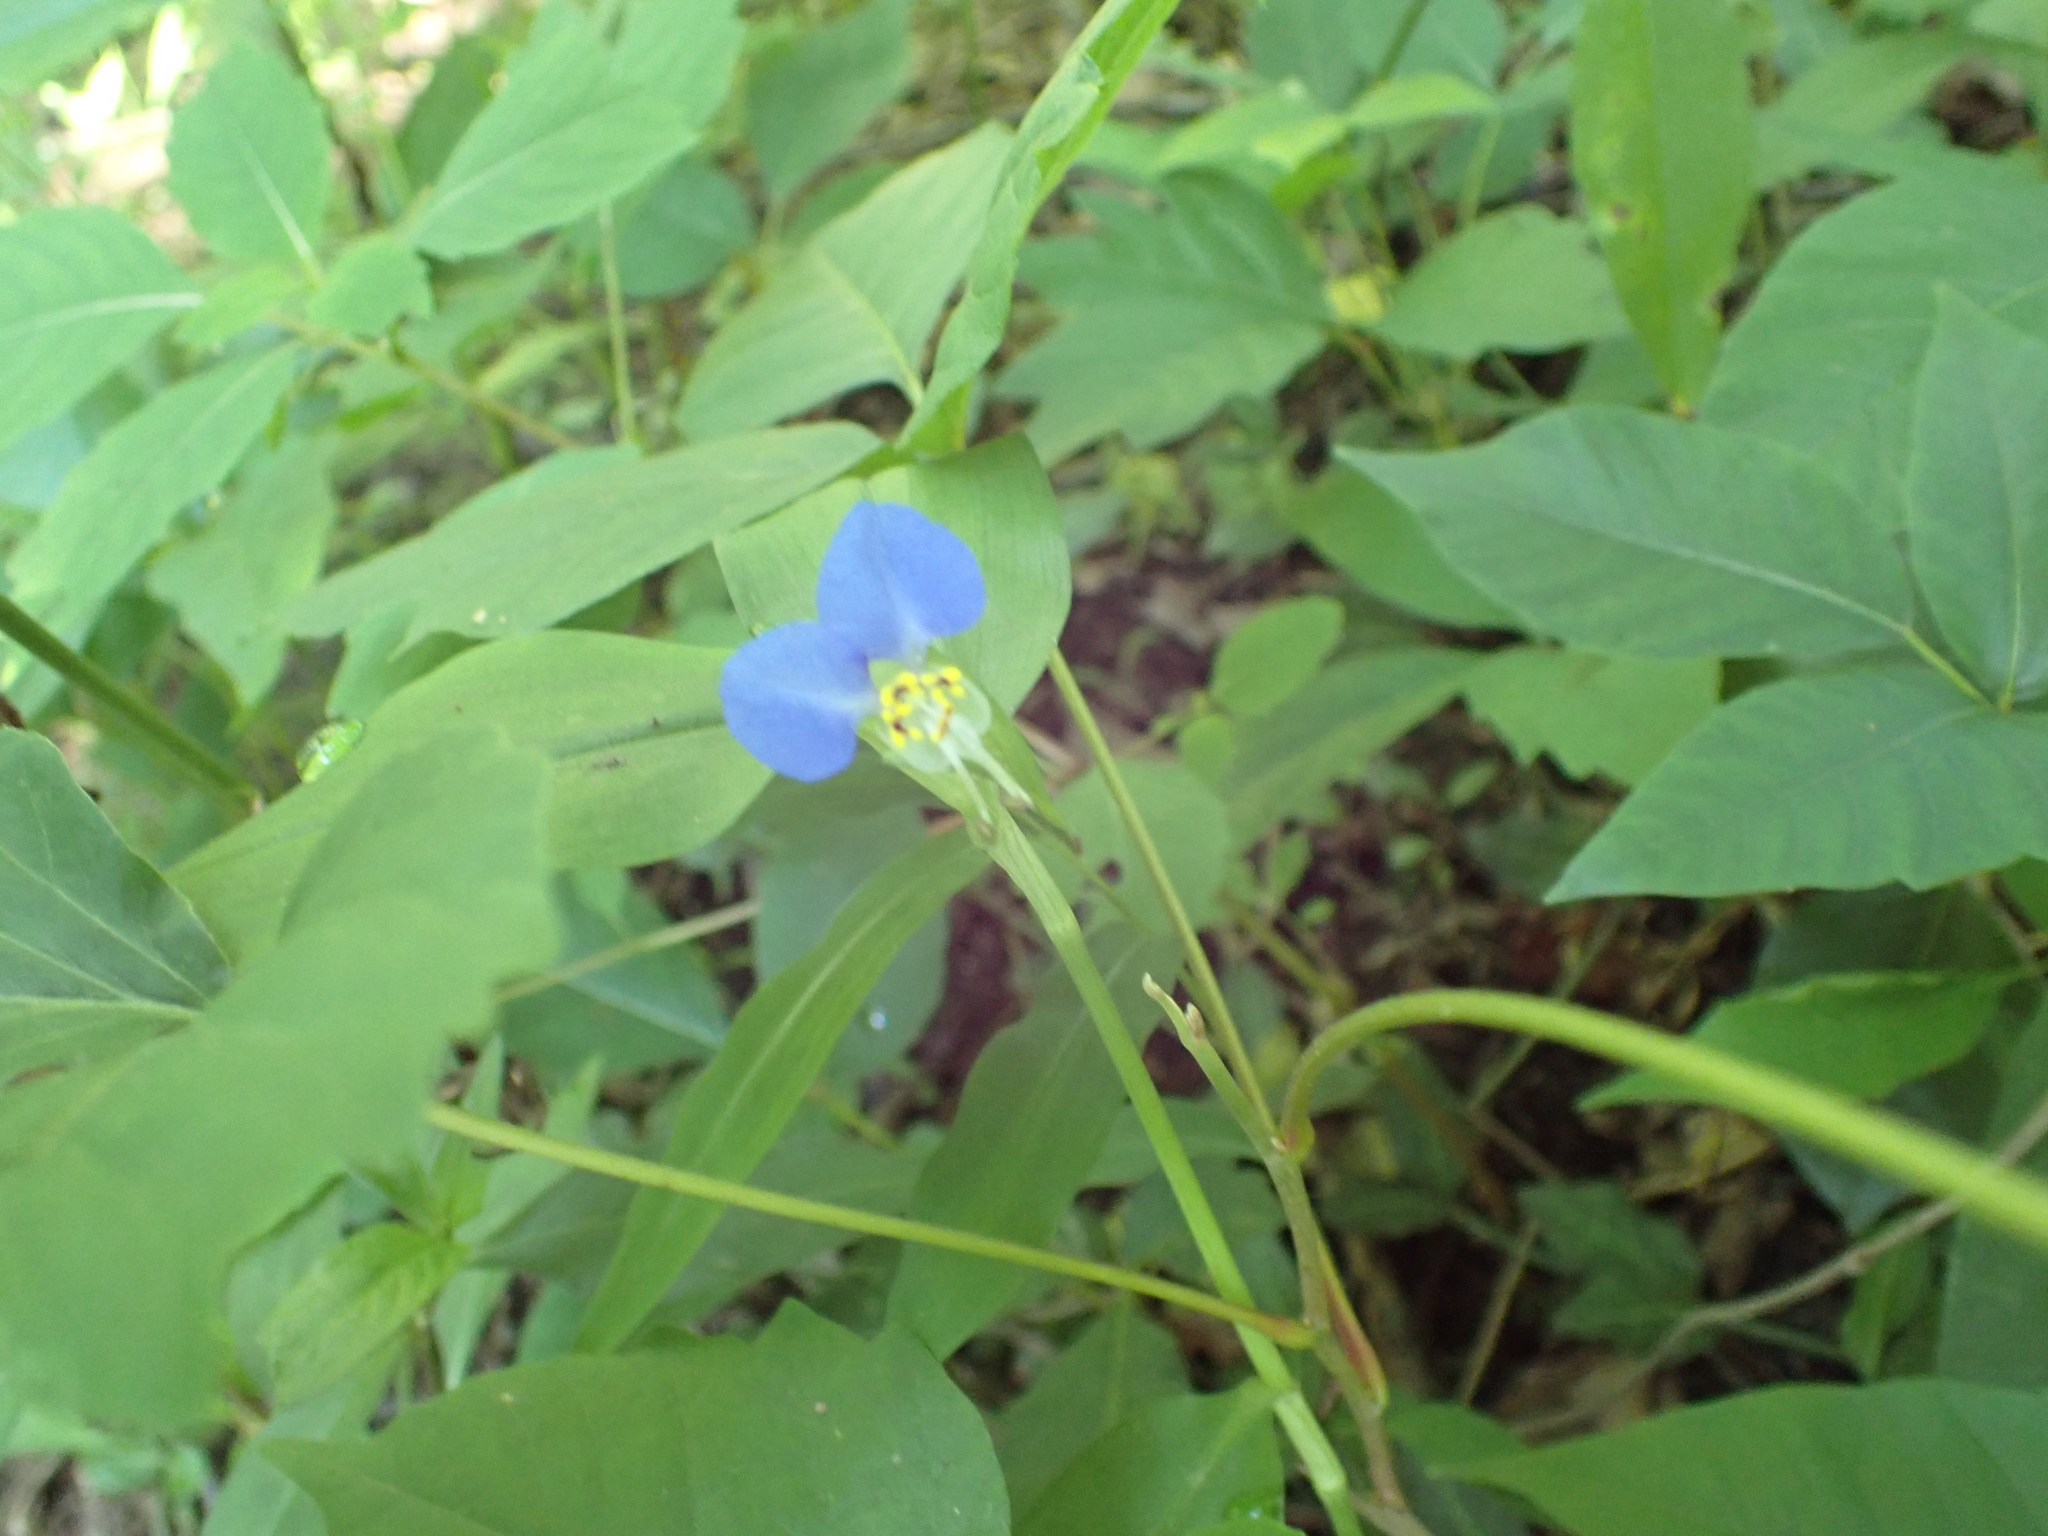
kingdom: Plantae
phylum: Tracheophyta
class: Liliopsida
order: Commelinales
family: Commelinaceae
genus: Commelina
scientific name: Commelina communis
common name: Asiatic dayflower
